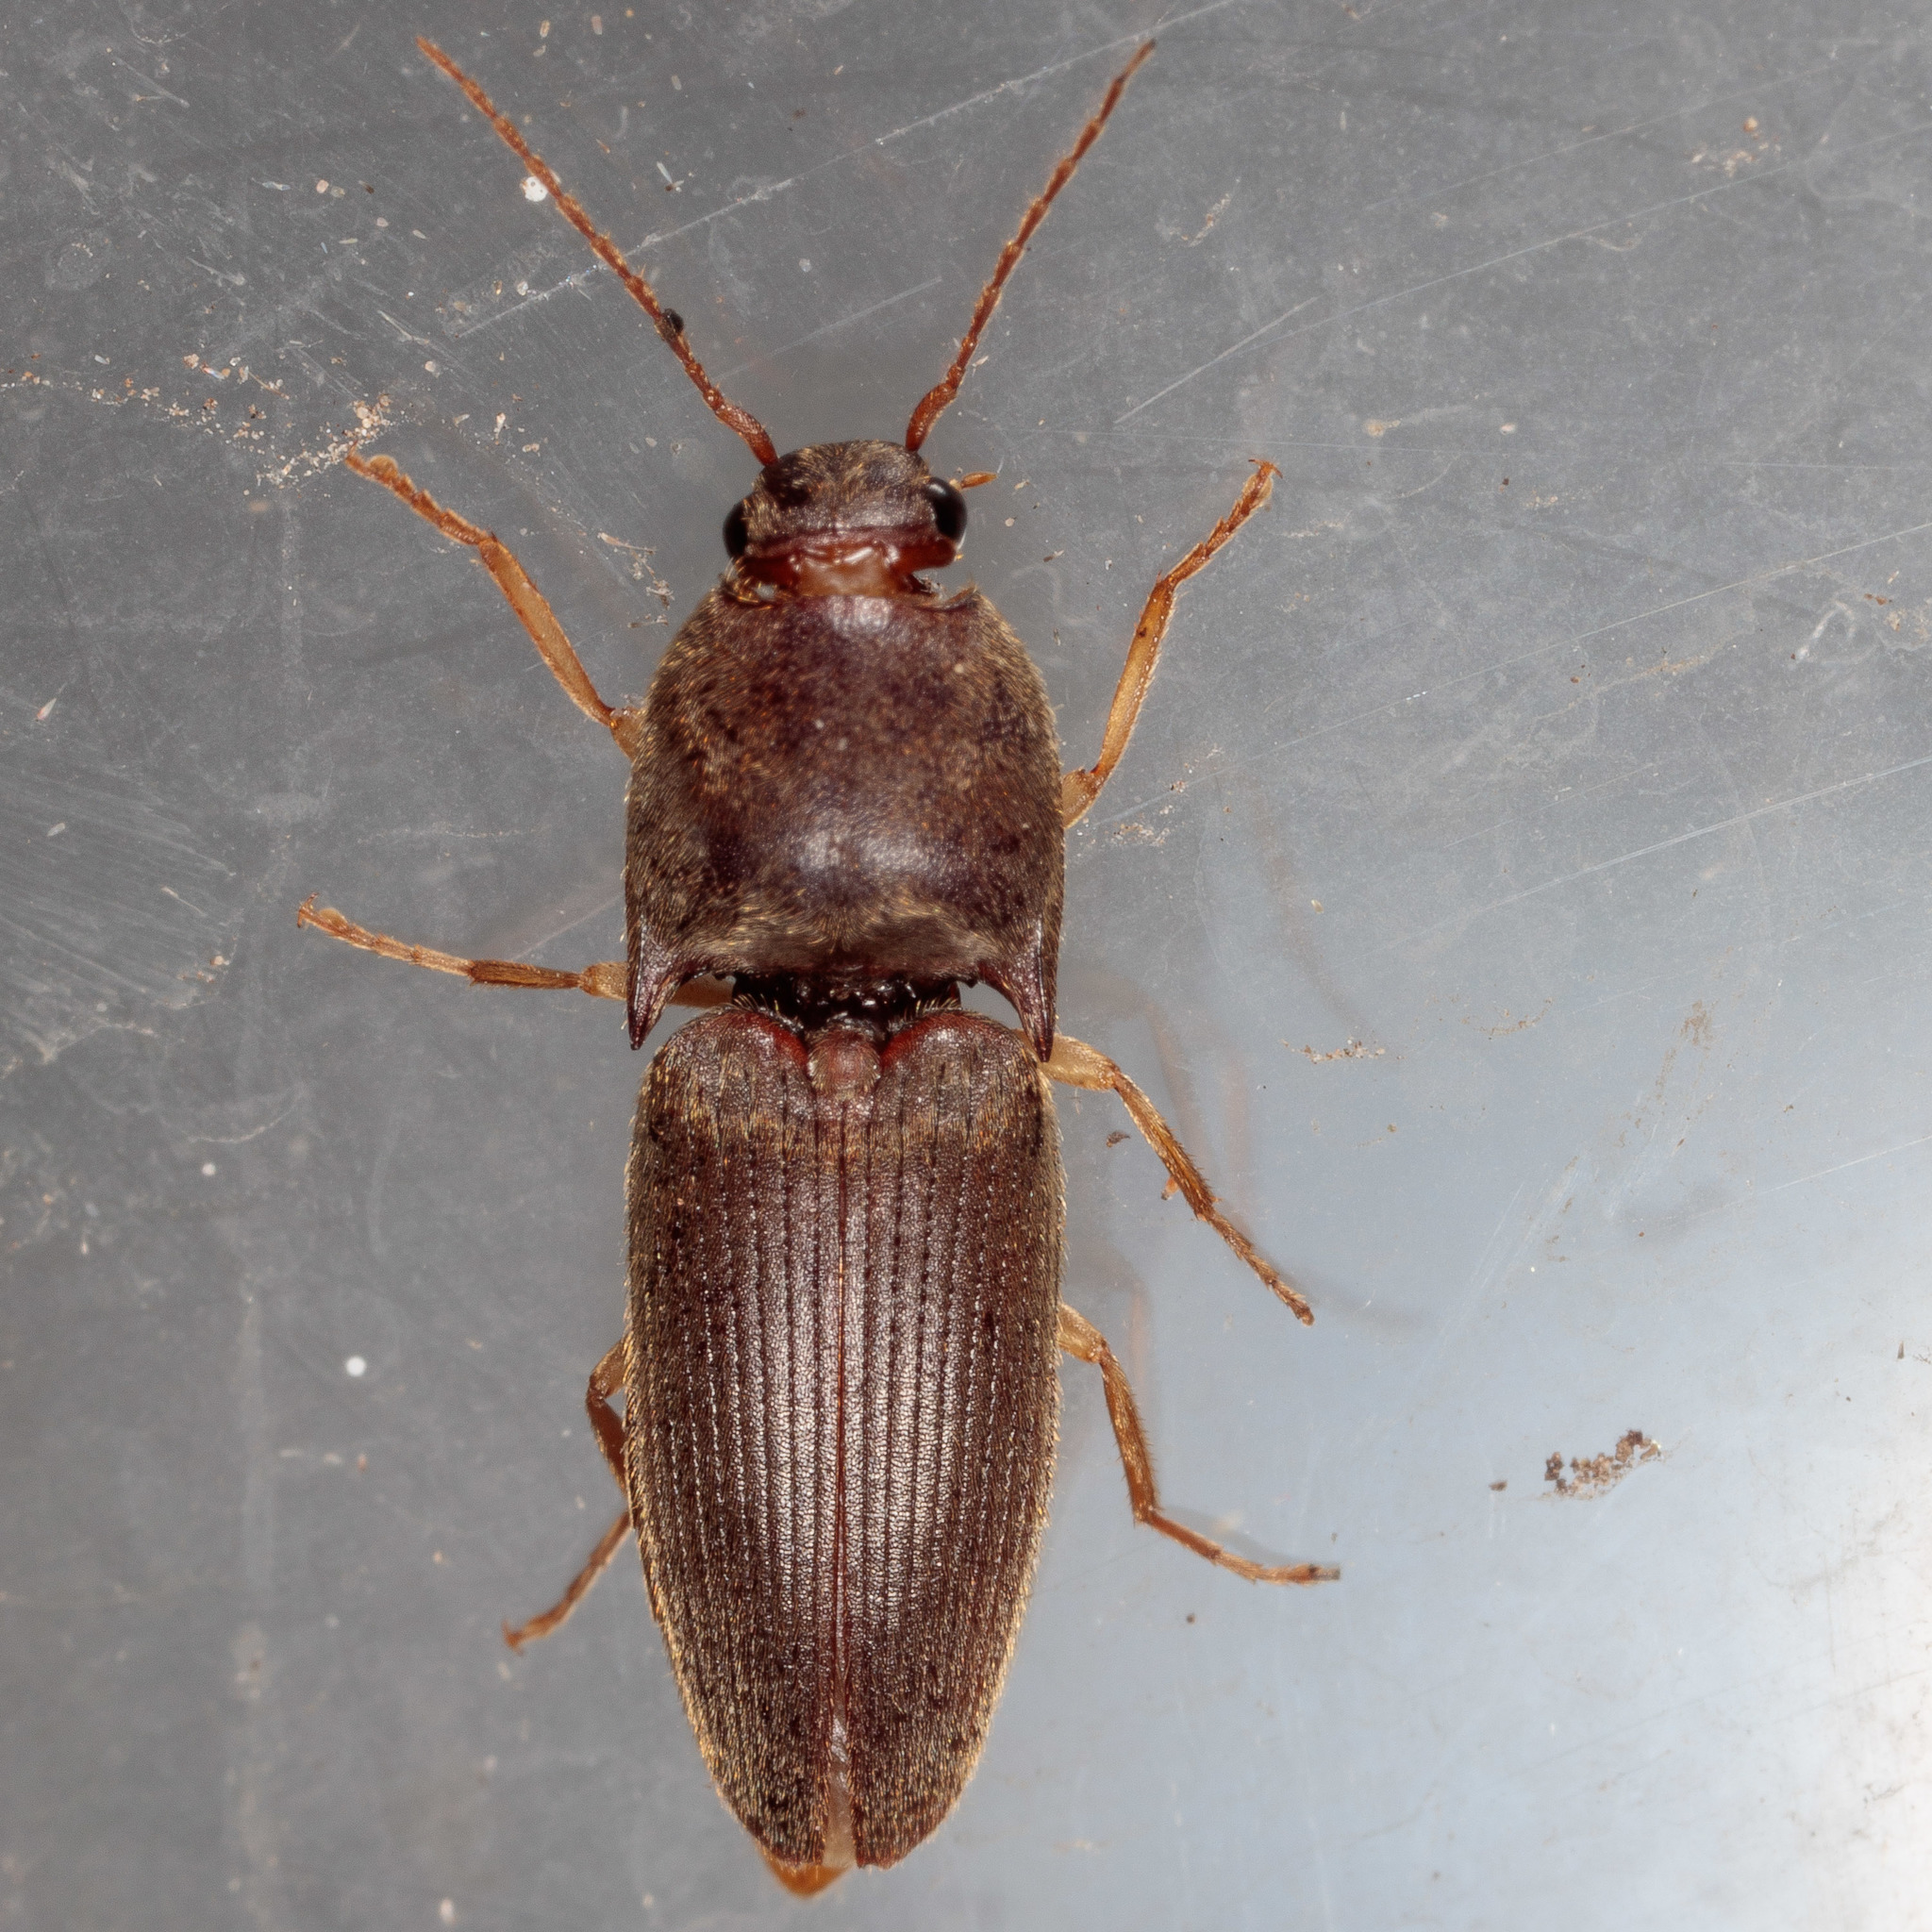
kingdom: Animalia
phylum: Arthropoda
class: Insecta
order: Coleoptera
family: Elateridae
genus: Conoderus
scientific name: Conoderus exsul
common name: Click beetle
